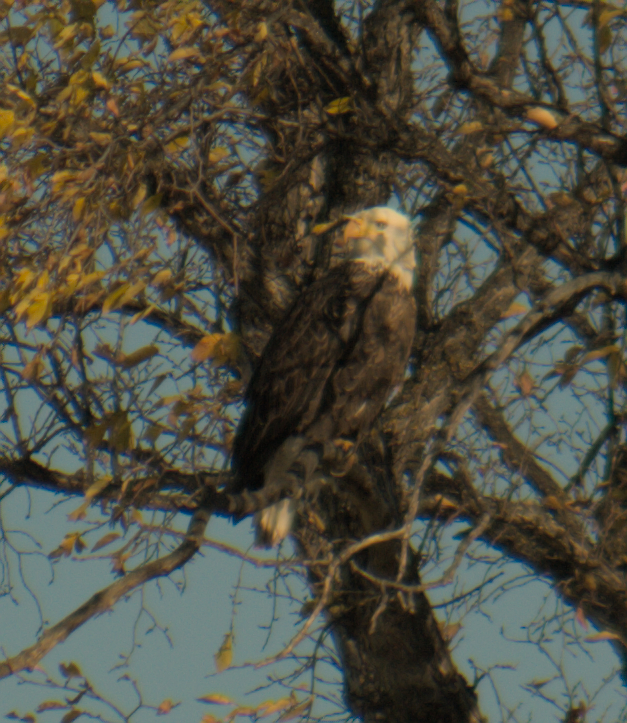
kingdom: Animalia
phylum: Chordata
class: Aves
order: Accipitriformes
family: Accipitridae
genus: Haliaeetus
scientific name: Haliaeetus leucocephalus
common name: Bald eagle
